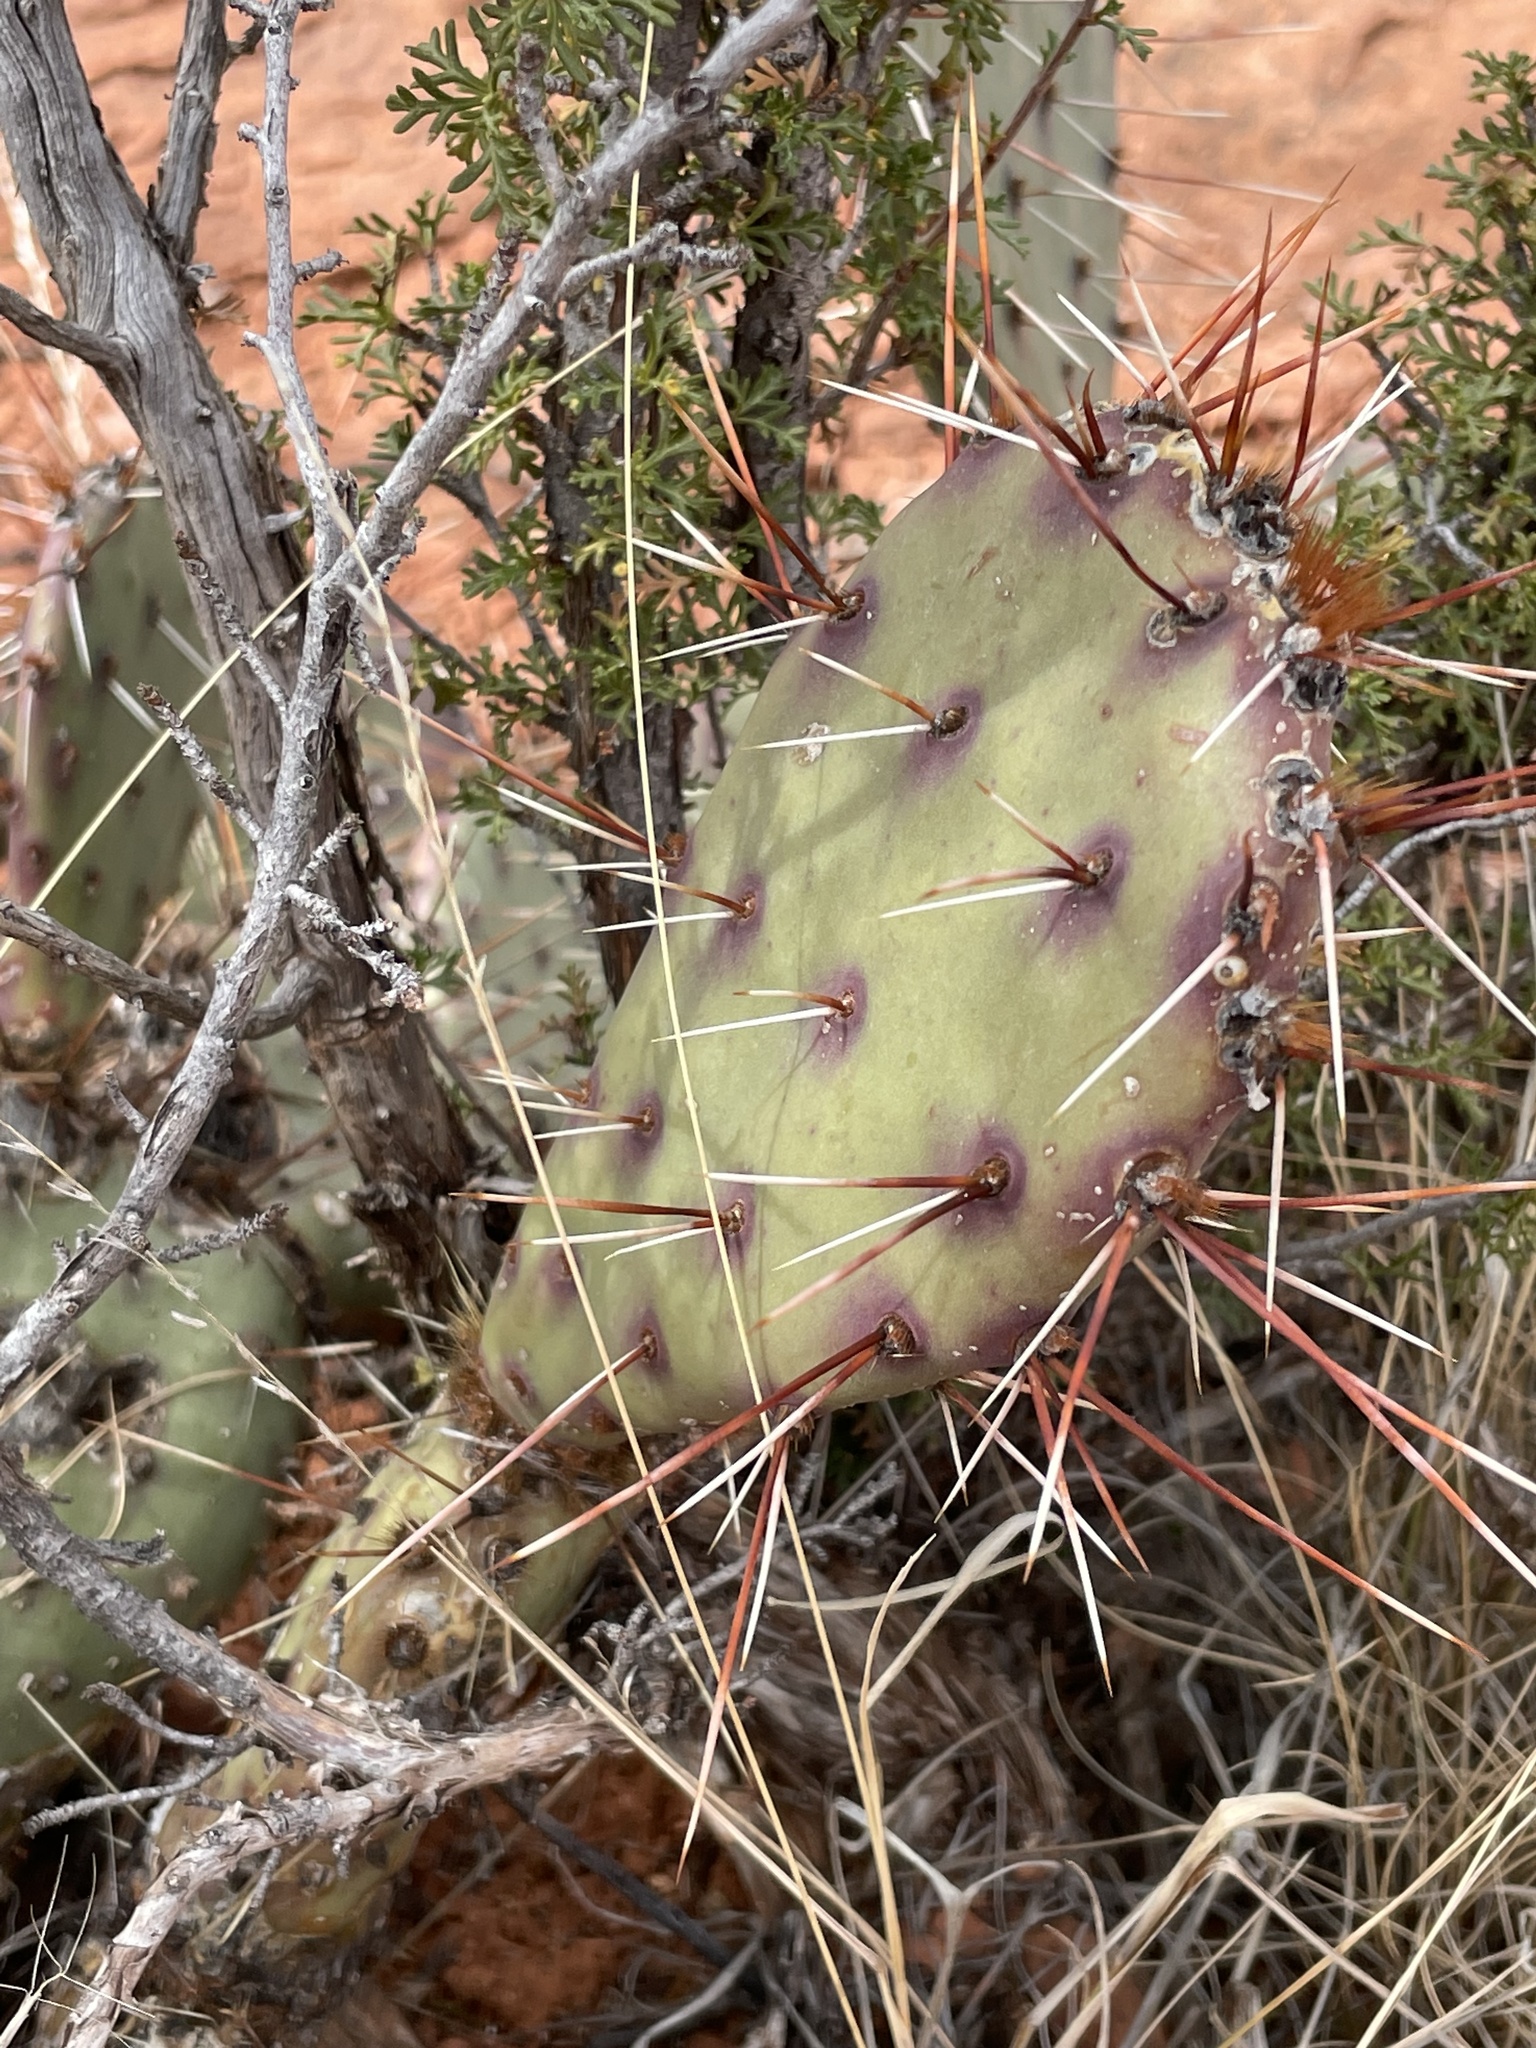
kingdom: Plantae
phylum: Tracheophyta
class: Magnoliopsida
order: Caryophyllales
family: Cactaceae
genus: Opuntia
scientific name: Opuntia phaeacantha
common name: New mexico prickly-pear
